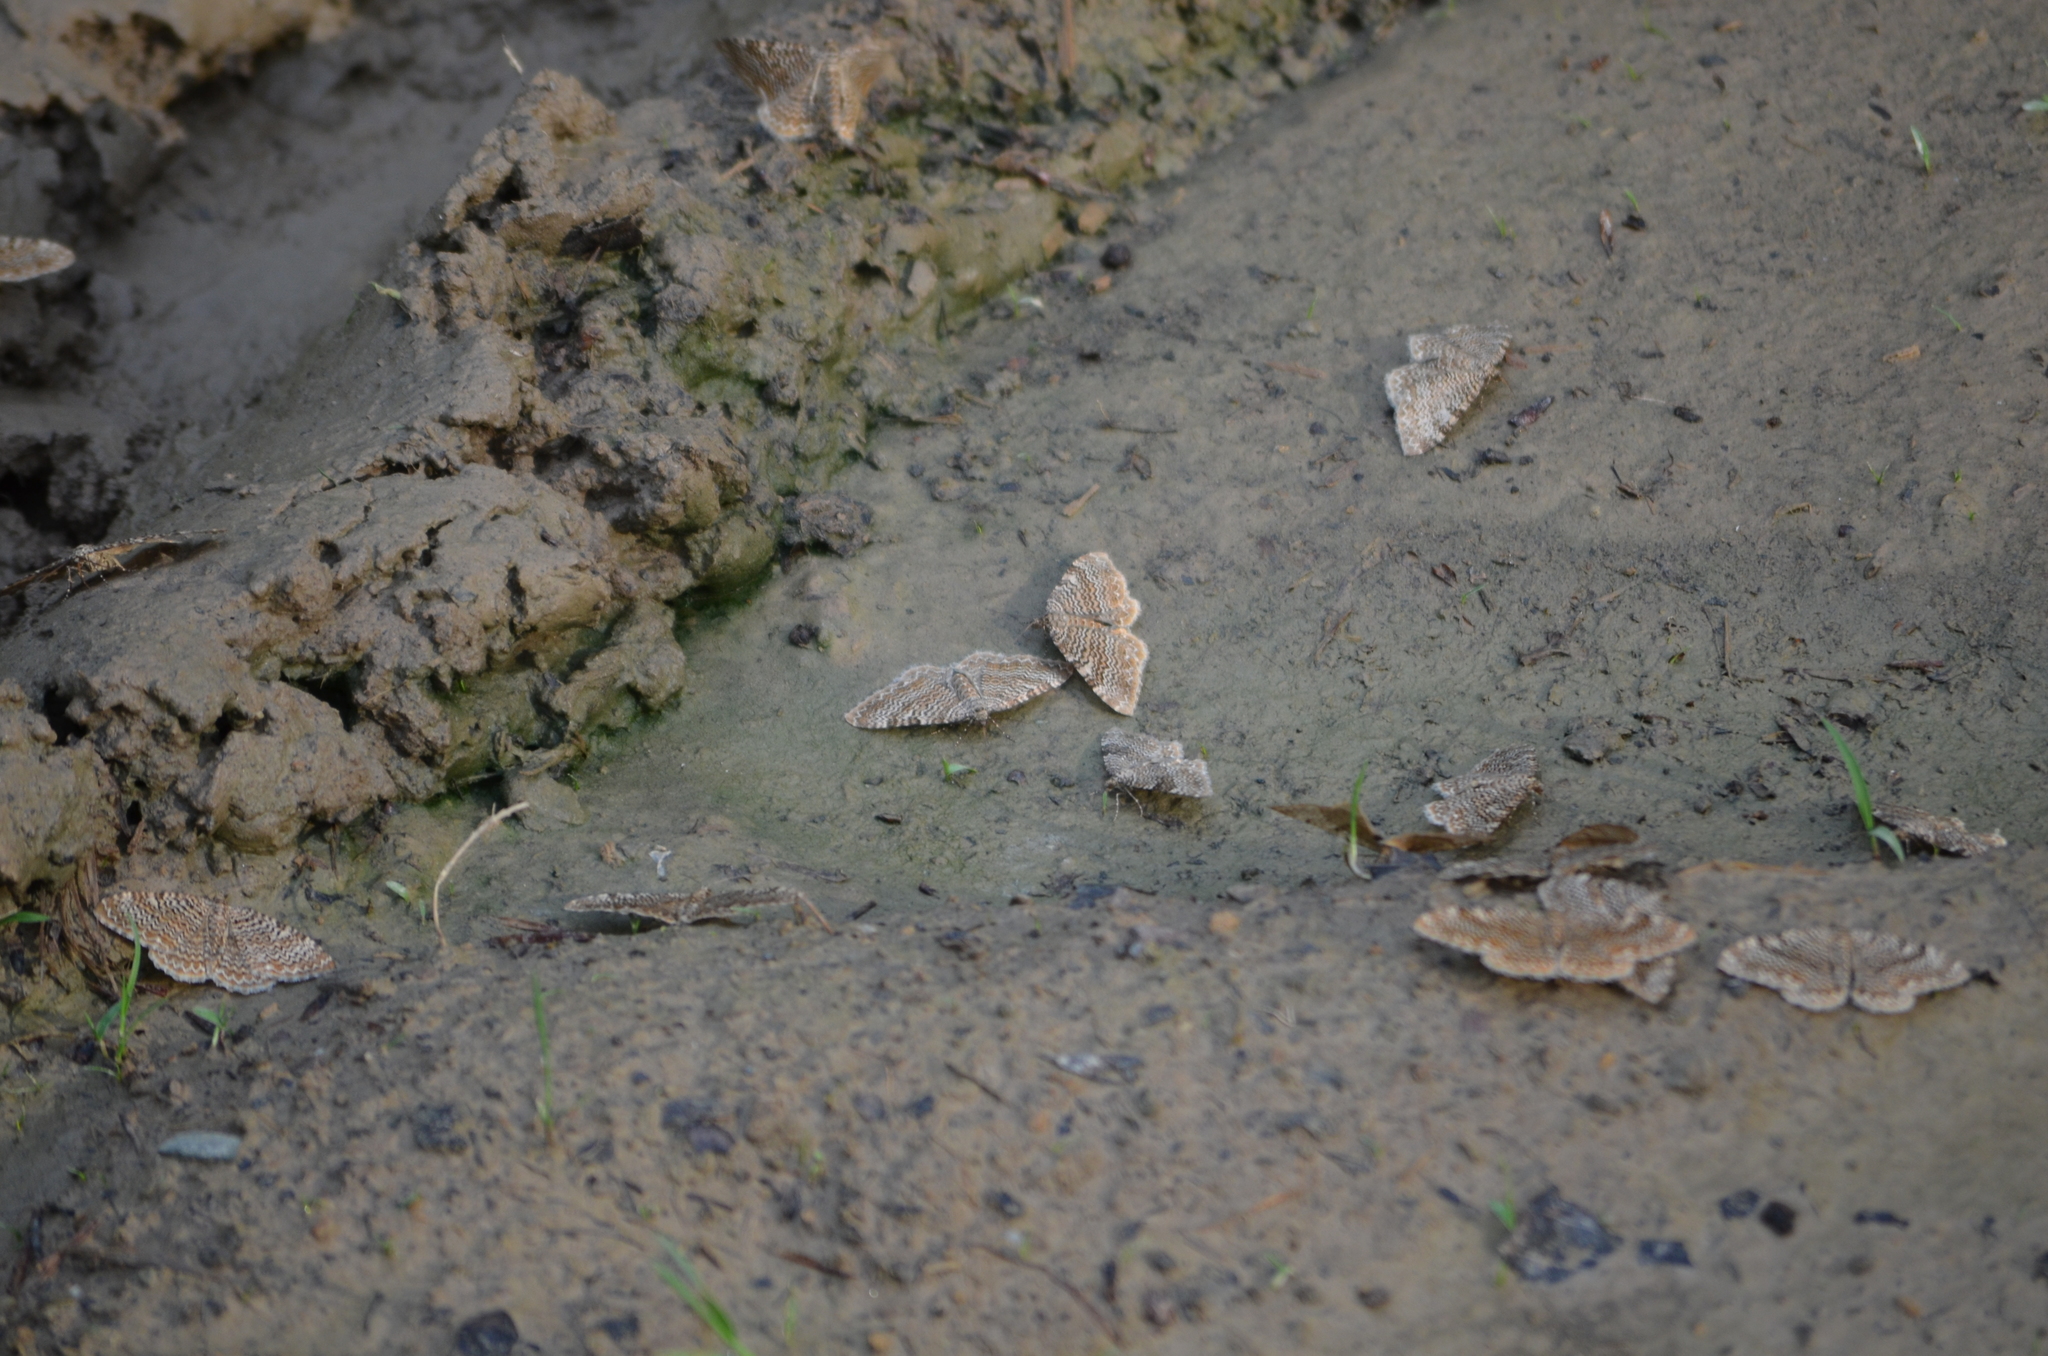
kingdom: Animalia
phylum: Arthropoda
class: Insecta
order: Lepidoptera
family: Geometridae
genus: Rheumaptera
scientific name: Rheumaptera prunivorata
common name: Cherry scallop shell moth
